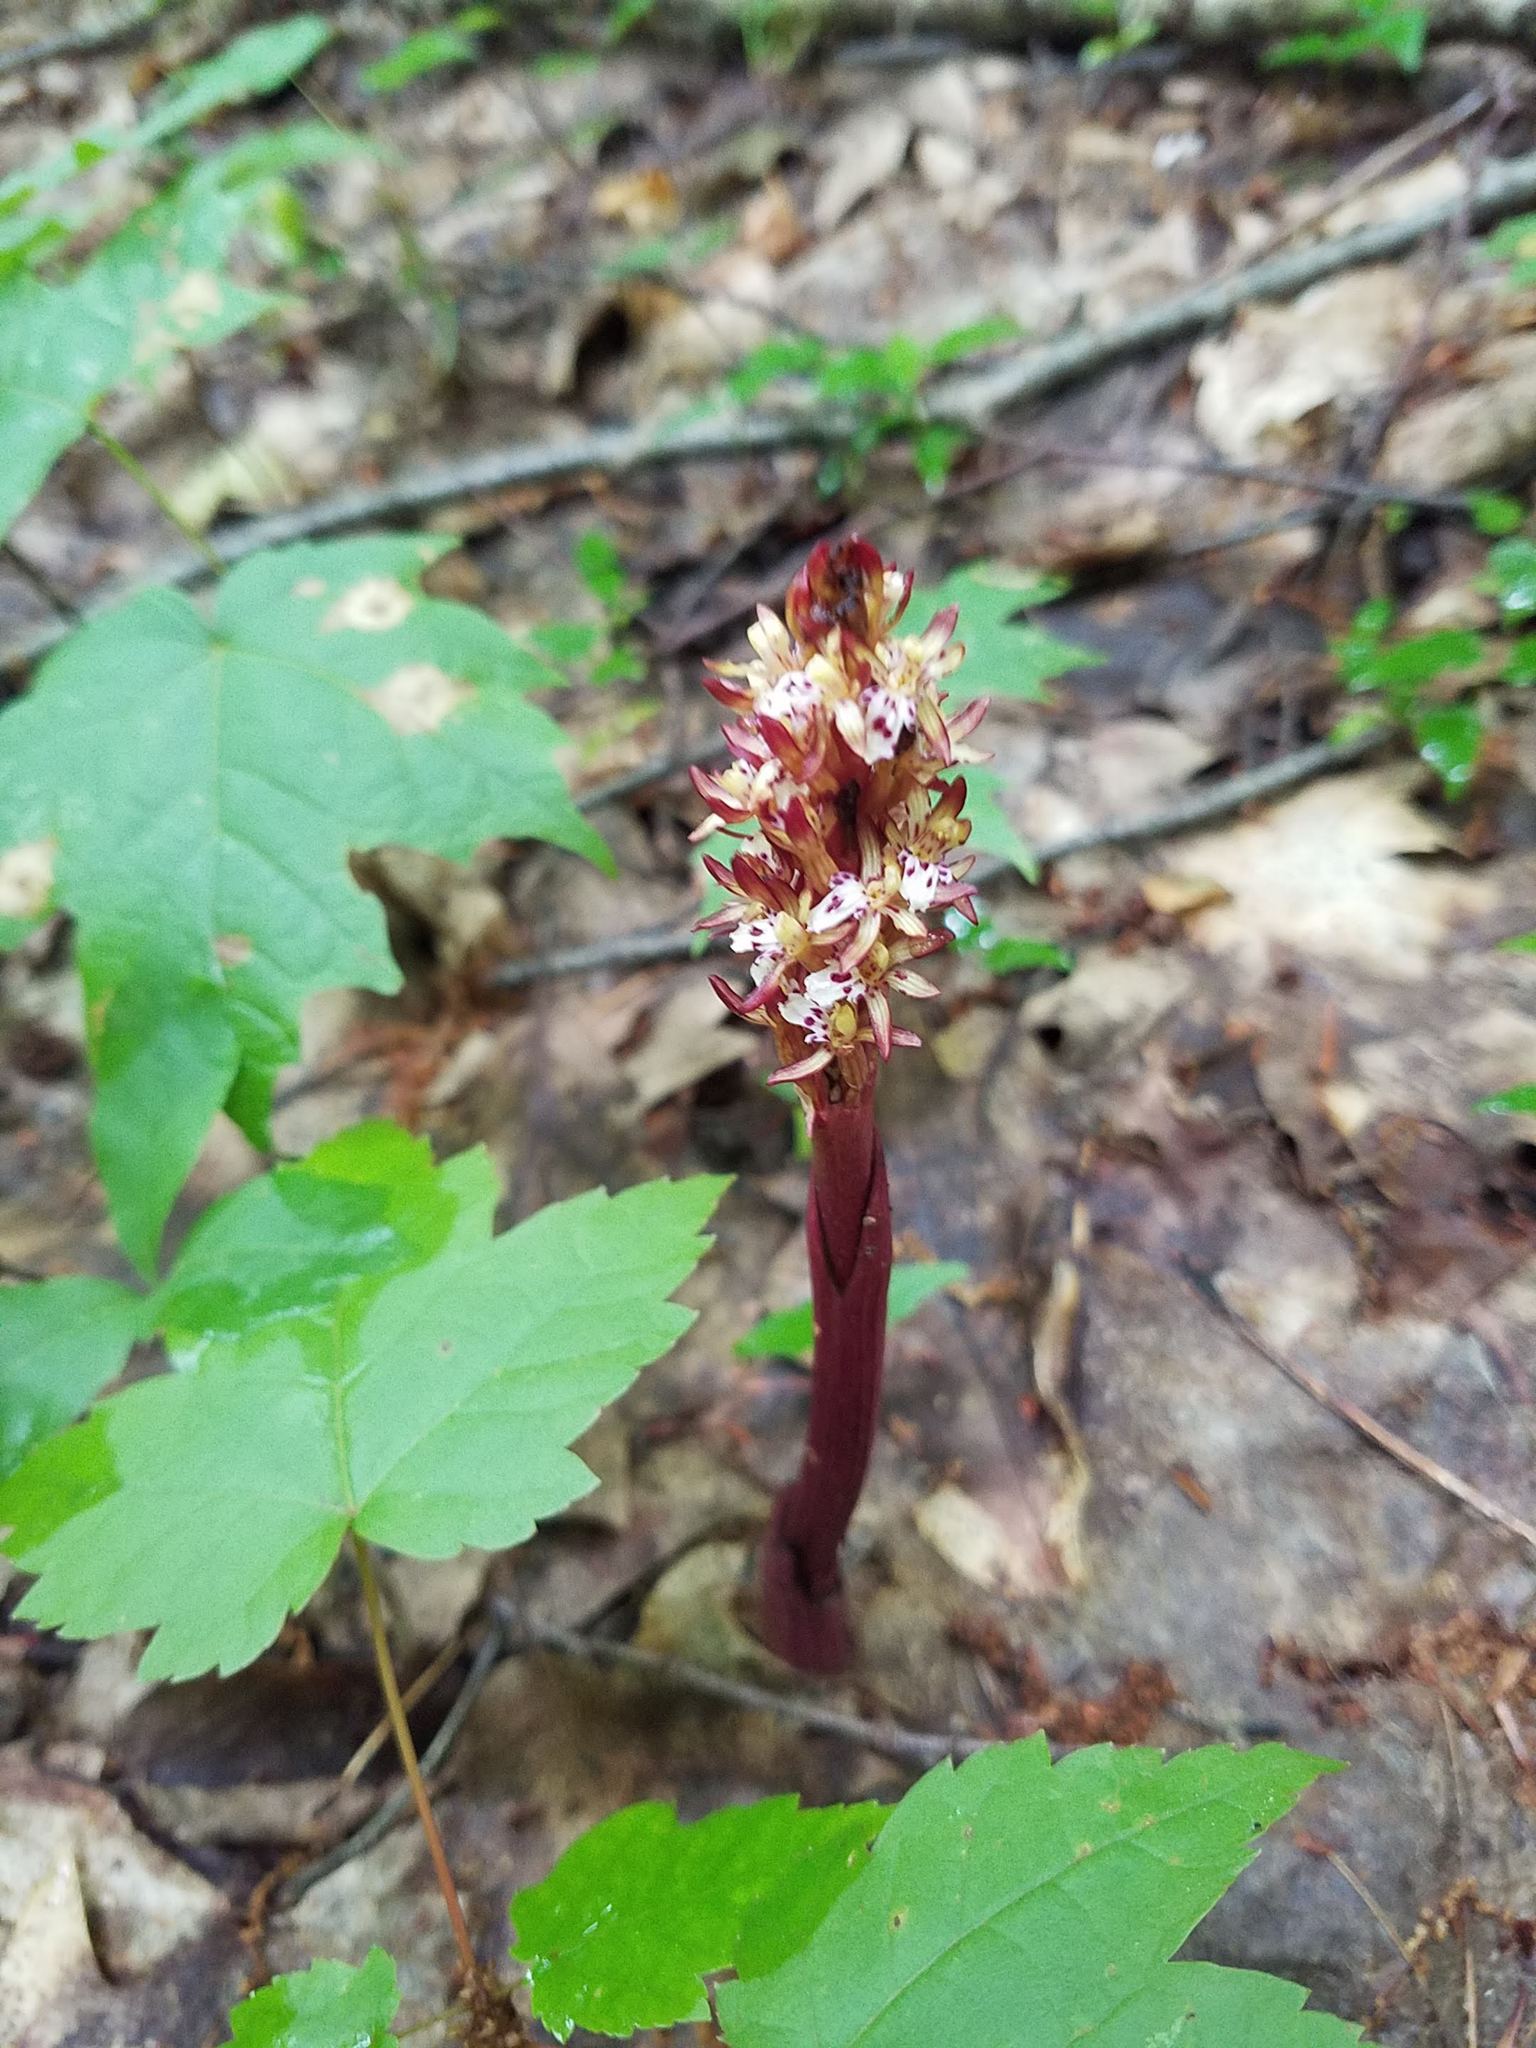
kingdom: Plantae
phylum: Tracheophyta
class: Liliopsida
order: Asparagales
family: Orchidaceae
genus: Corallorhiza
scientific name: Corallorhiza maculata
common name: Spotted coralroot
